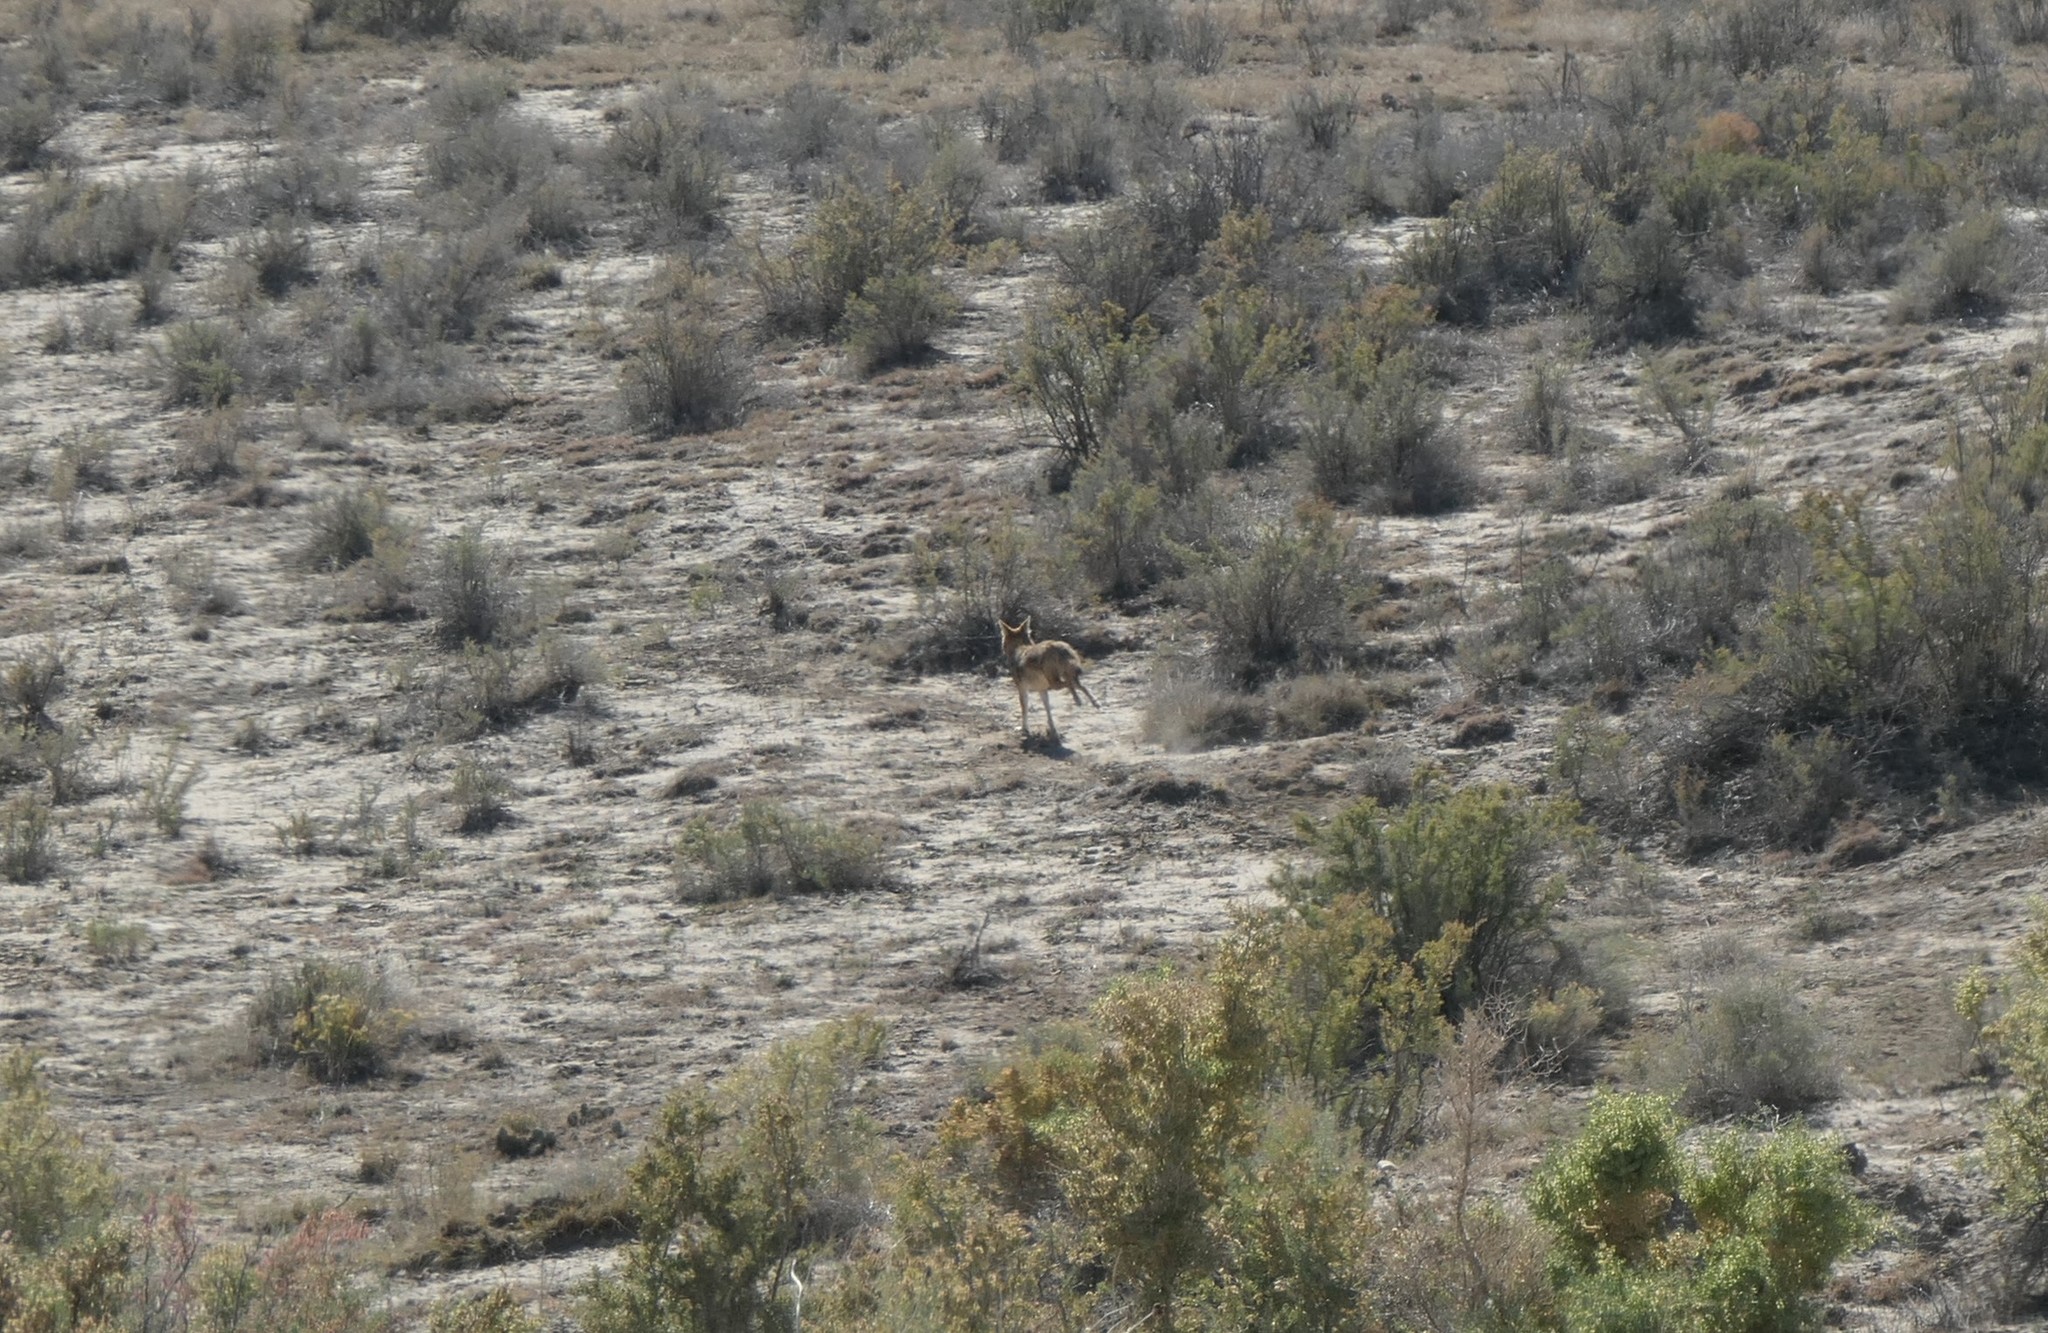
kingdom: Animalia
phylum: Chordata
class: Mammalia
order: Carnivora
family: Canidae
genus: Canis
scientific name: Canis latrans
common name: Coyote
